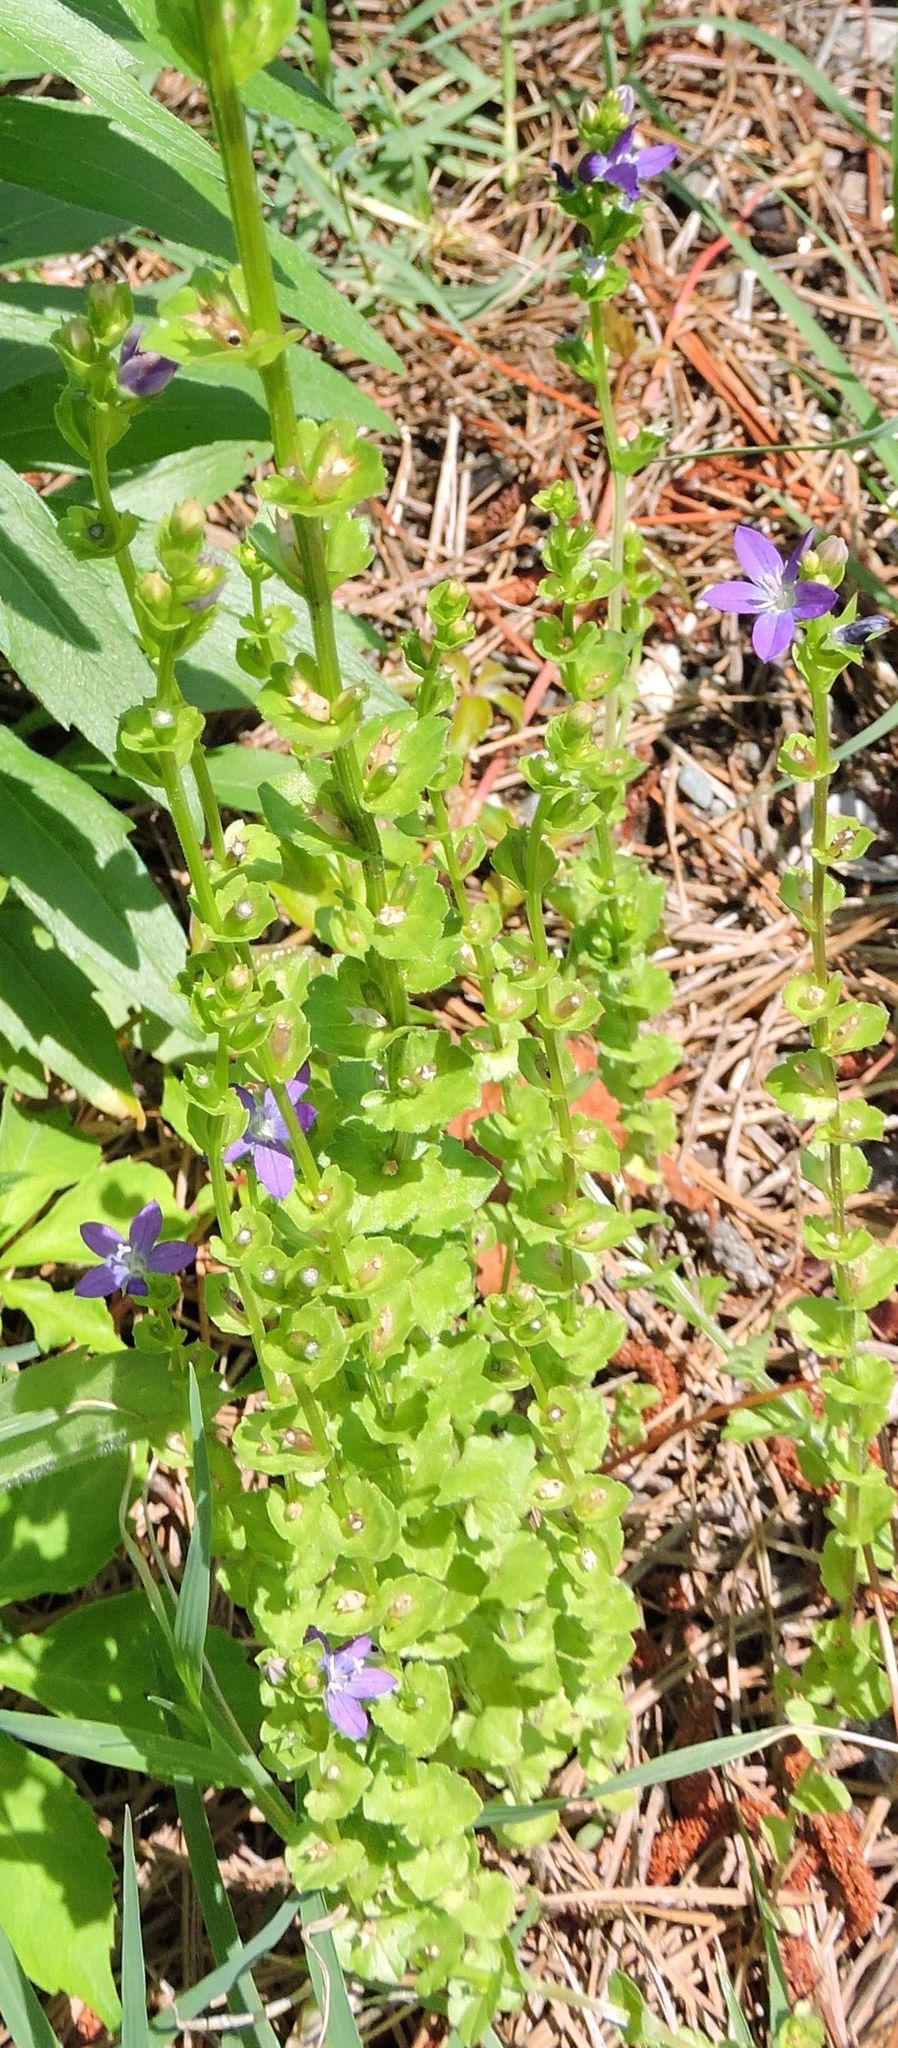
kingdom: Plantae
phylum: Tracheophyta
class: Magnoliopsida
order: Asterales
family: Campanulaceae
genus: Triodanis
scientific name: Triodanis perfoliata
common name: Clasping venus' looking-glass
